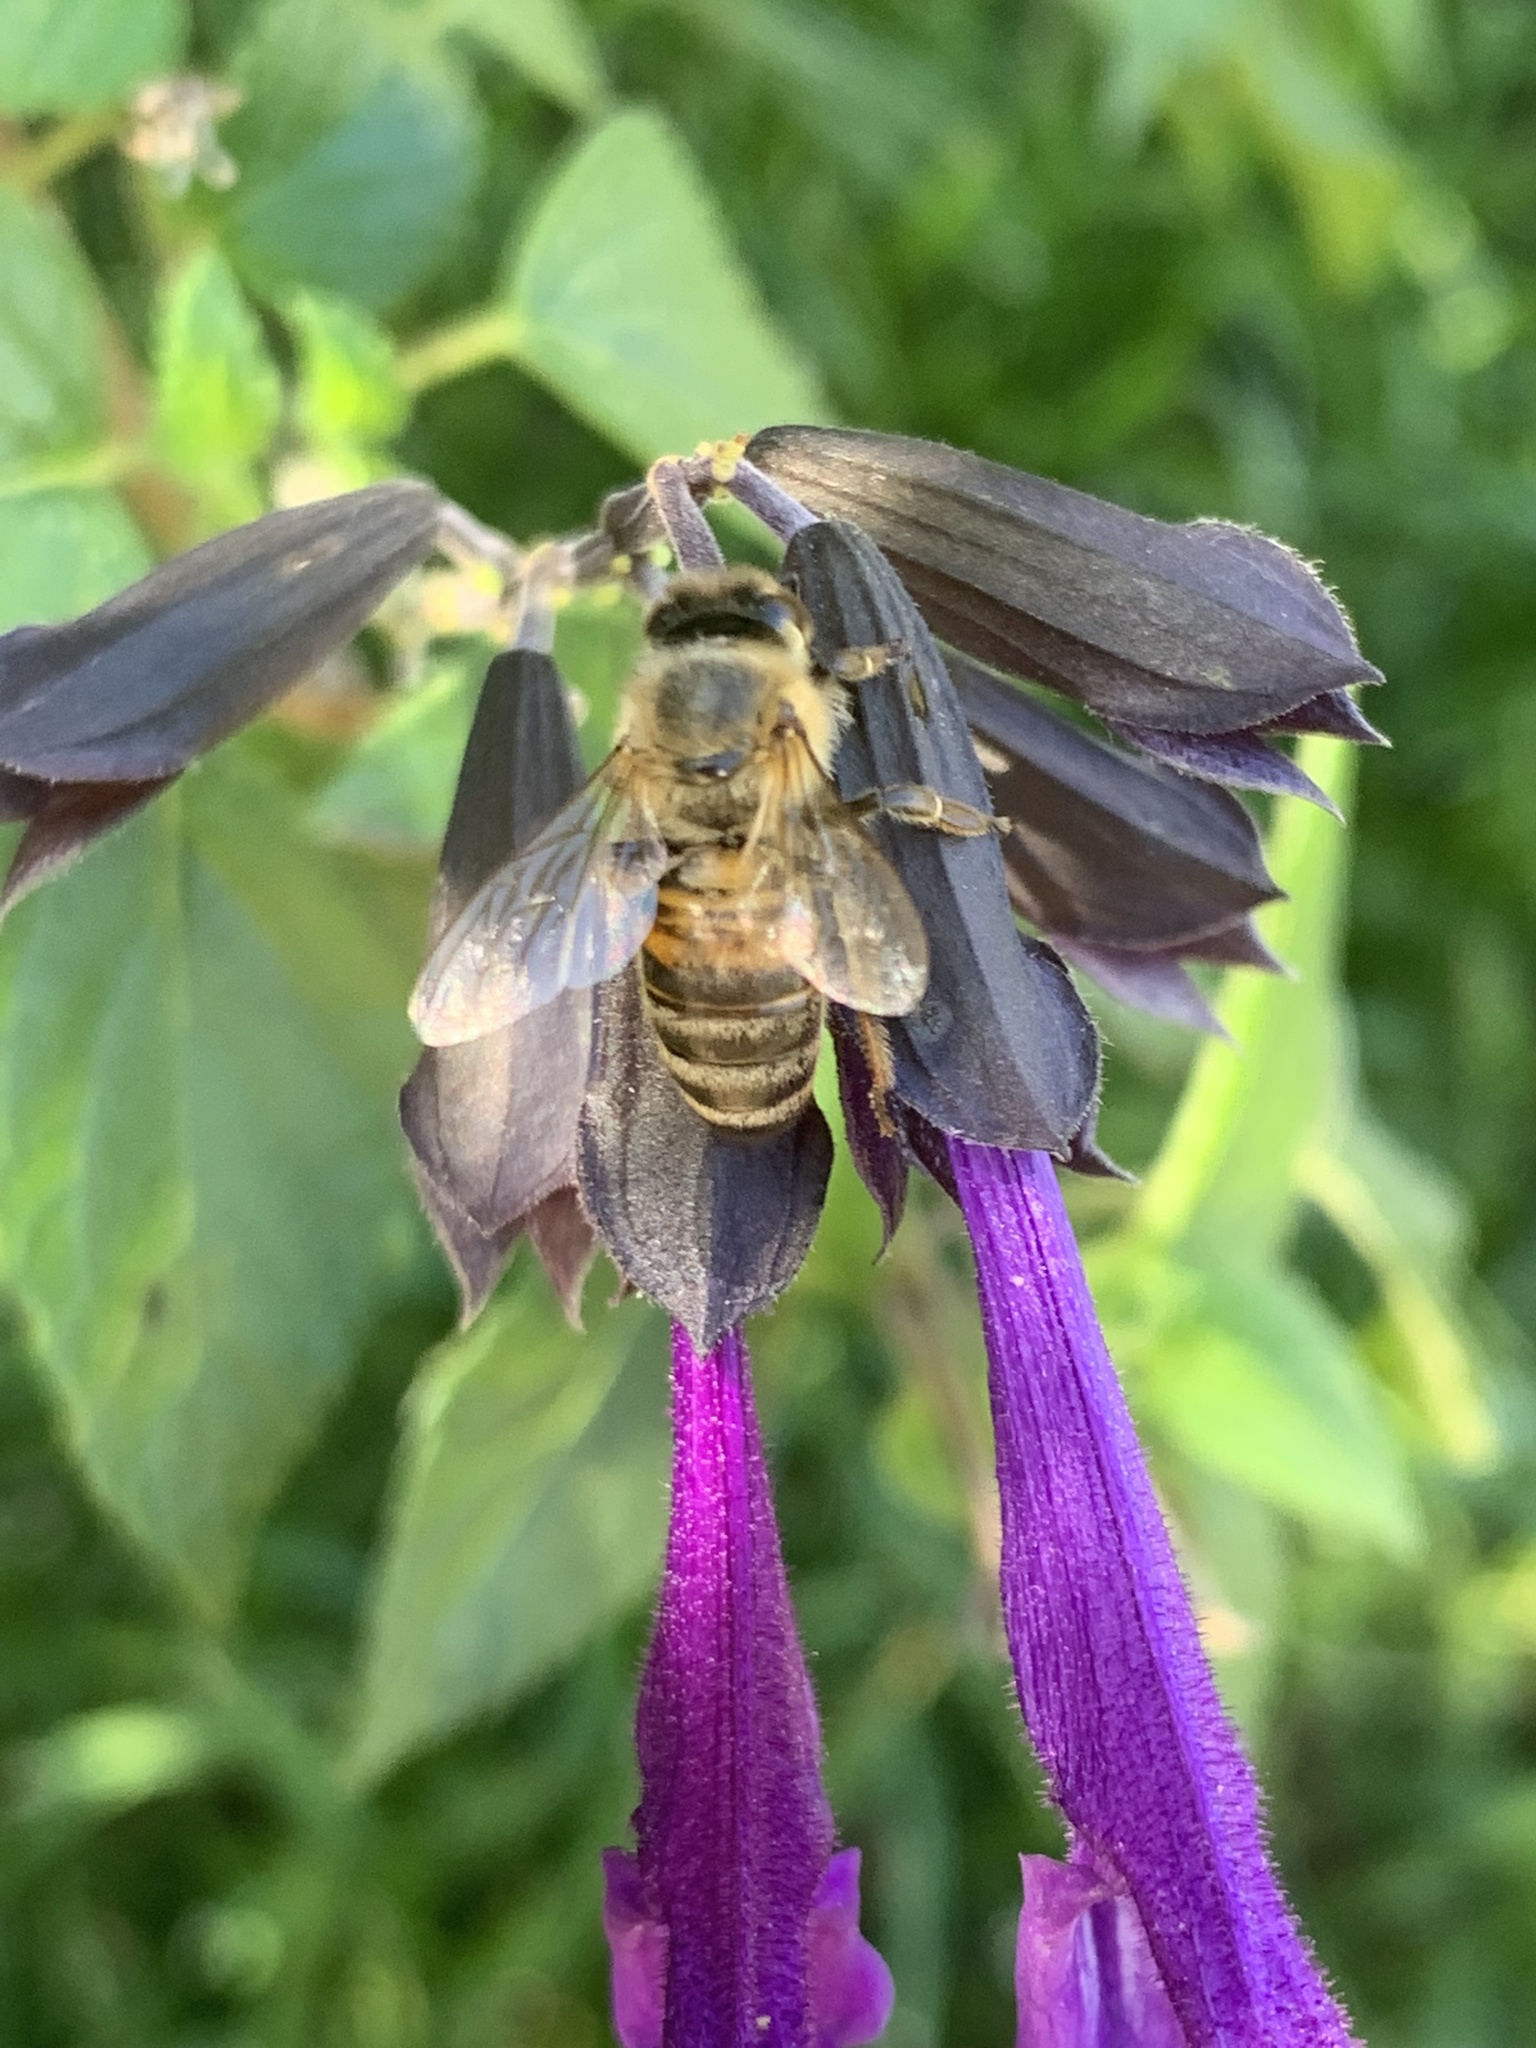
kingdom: Animalia
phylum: Arthropoda
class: Insecta
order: Hymenoptera
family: Apidae
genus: Apis
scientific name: Apis mellifera
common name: Honey bee
